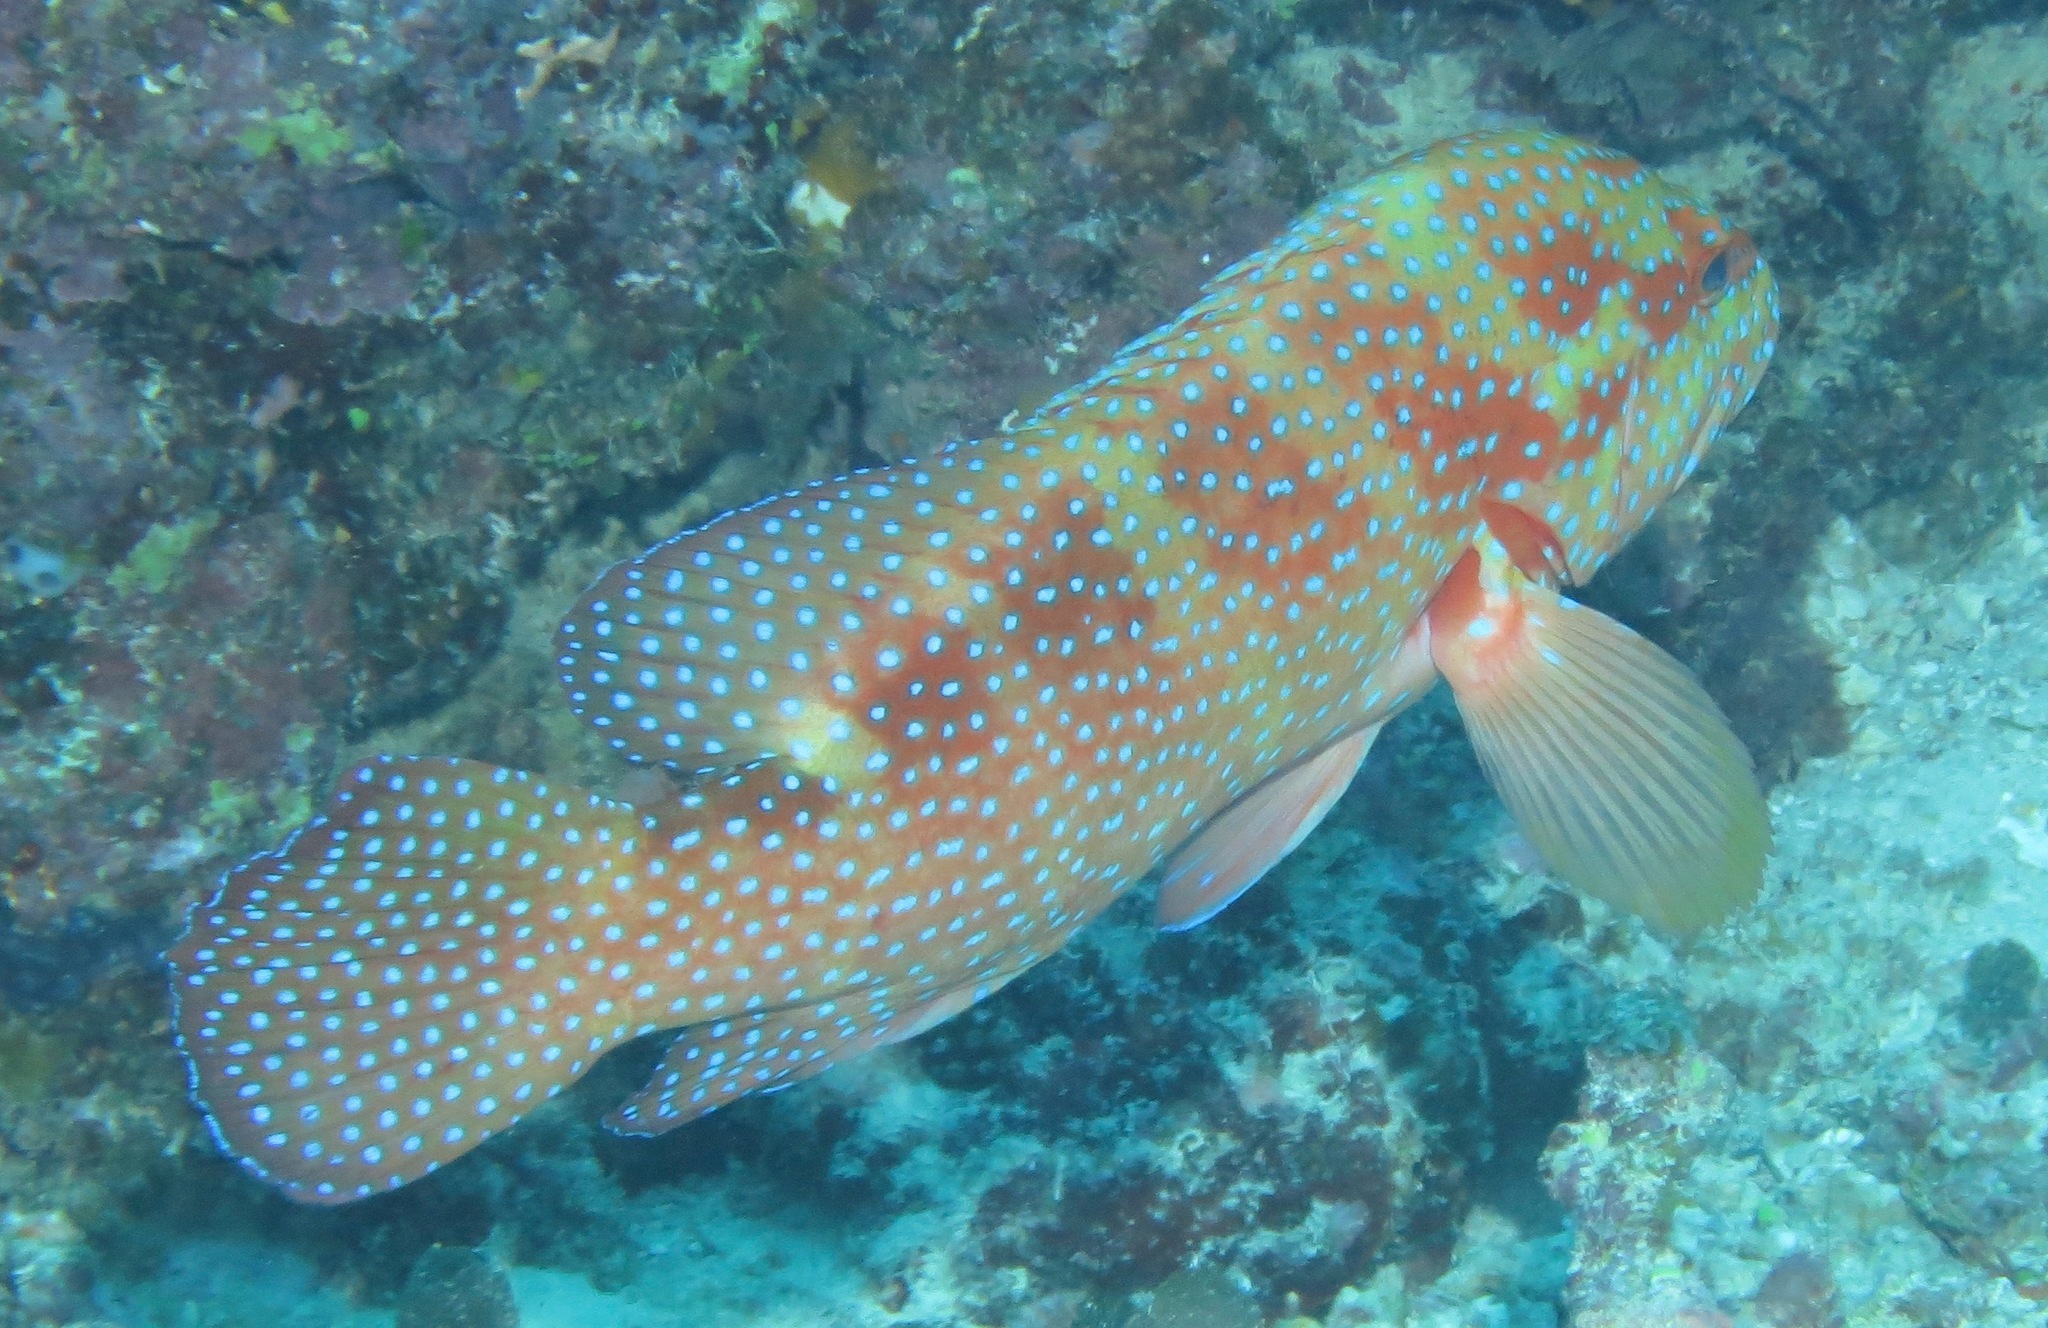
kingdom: Animalia
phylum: Chordata
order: Perciformes
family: Serranidae
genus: Cephalopholis
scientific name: Cephalopholis miniata
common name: Coral hind
